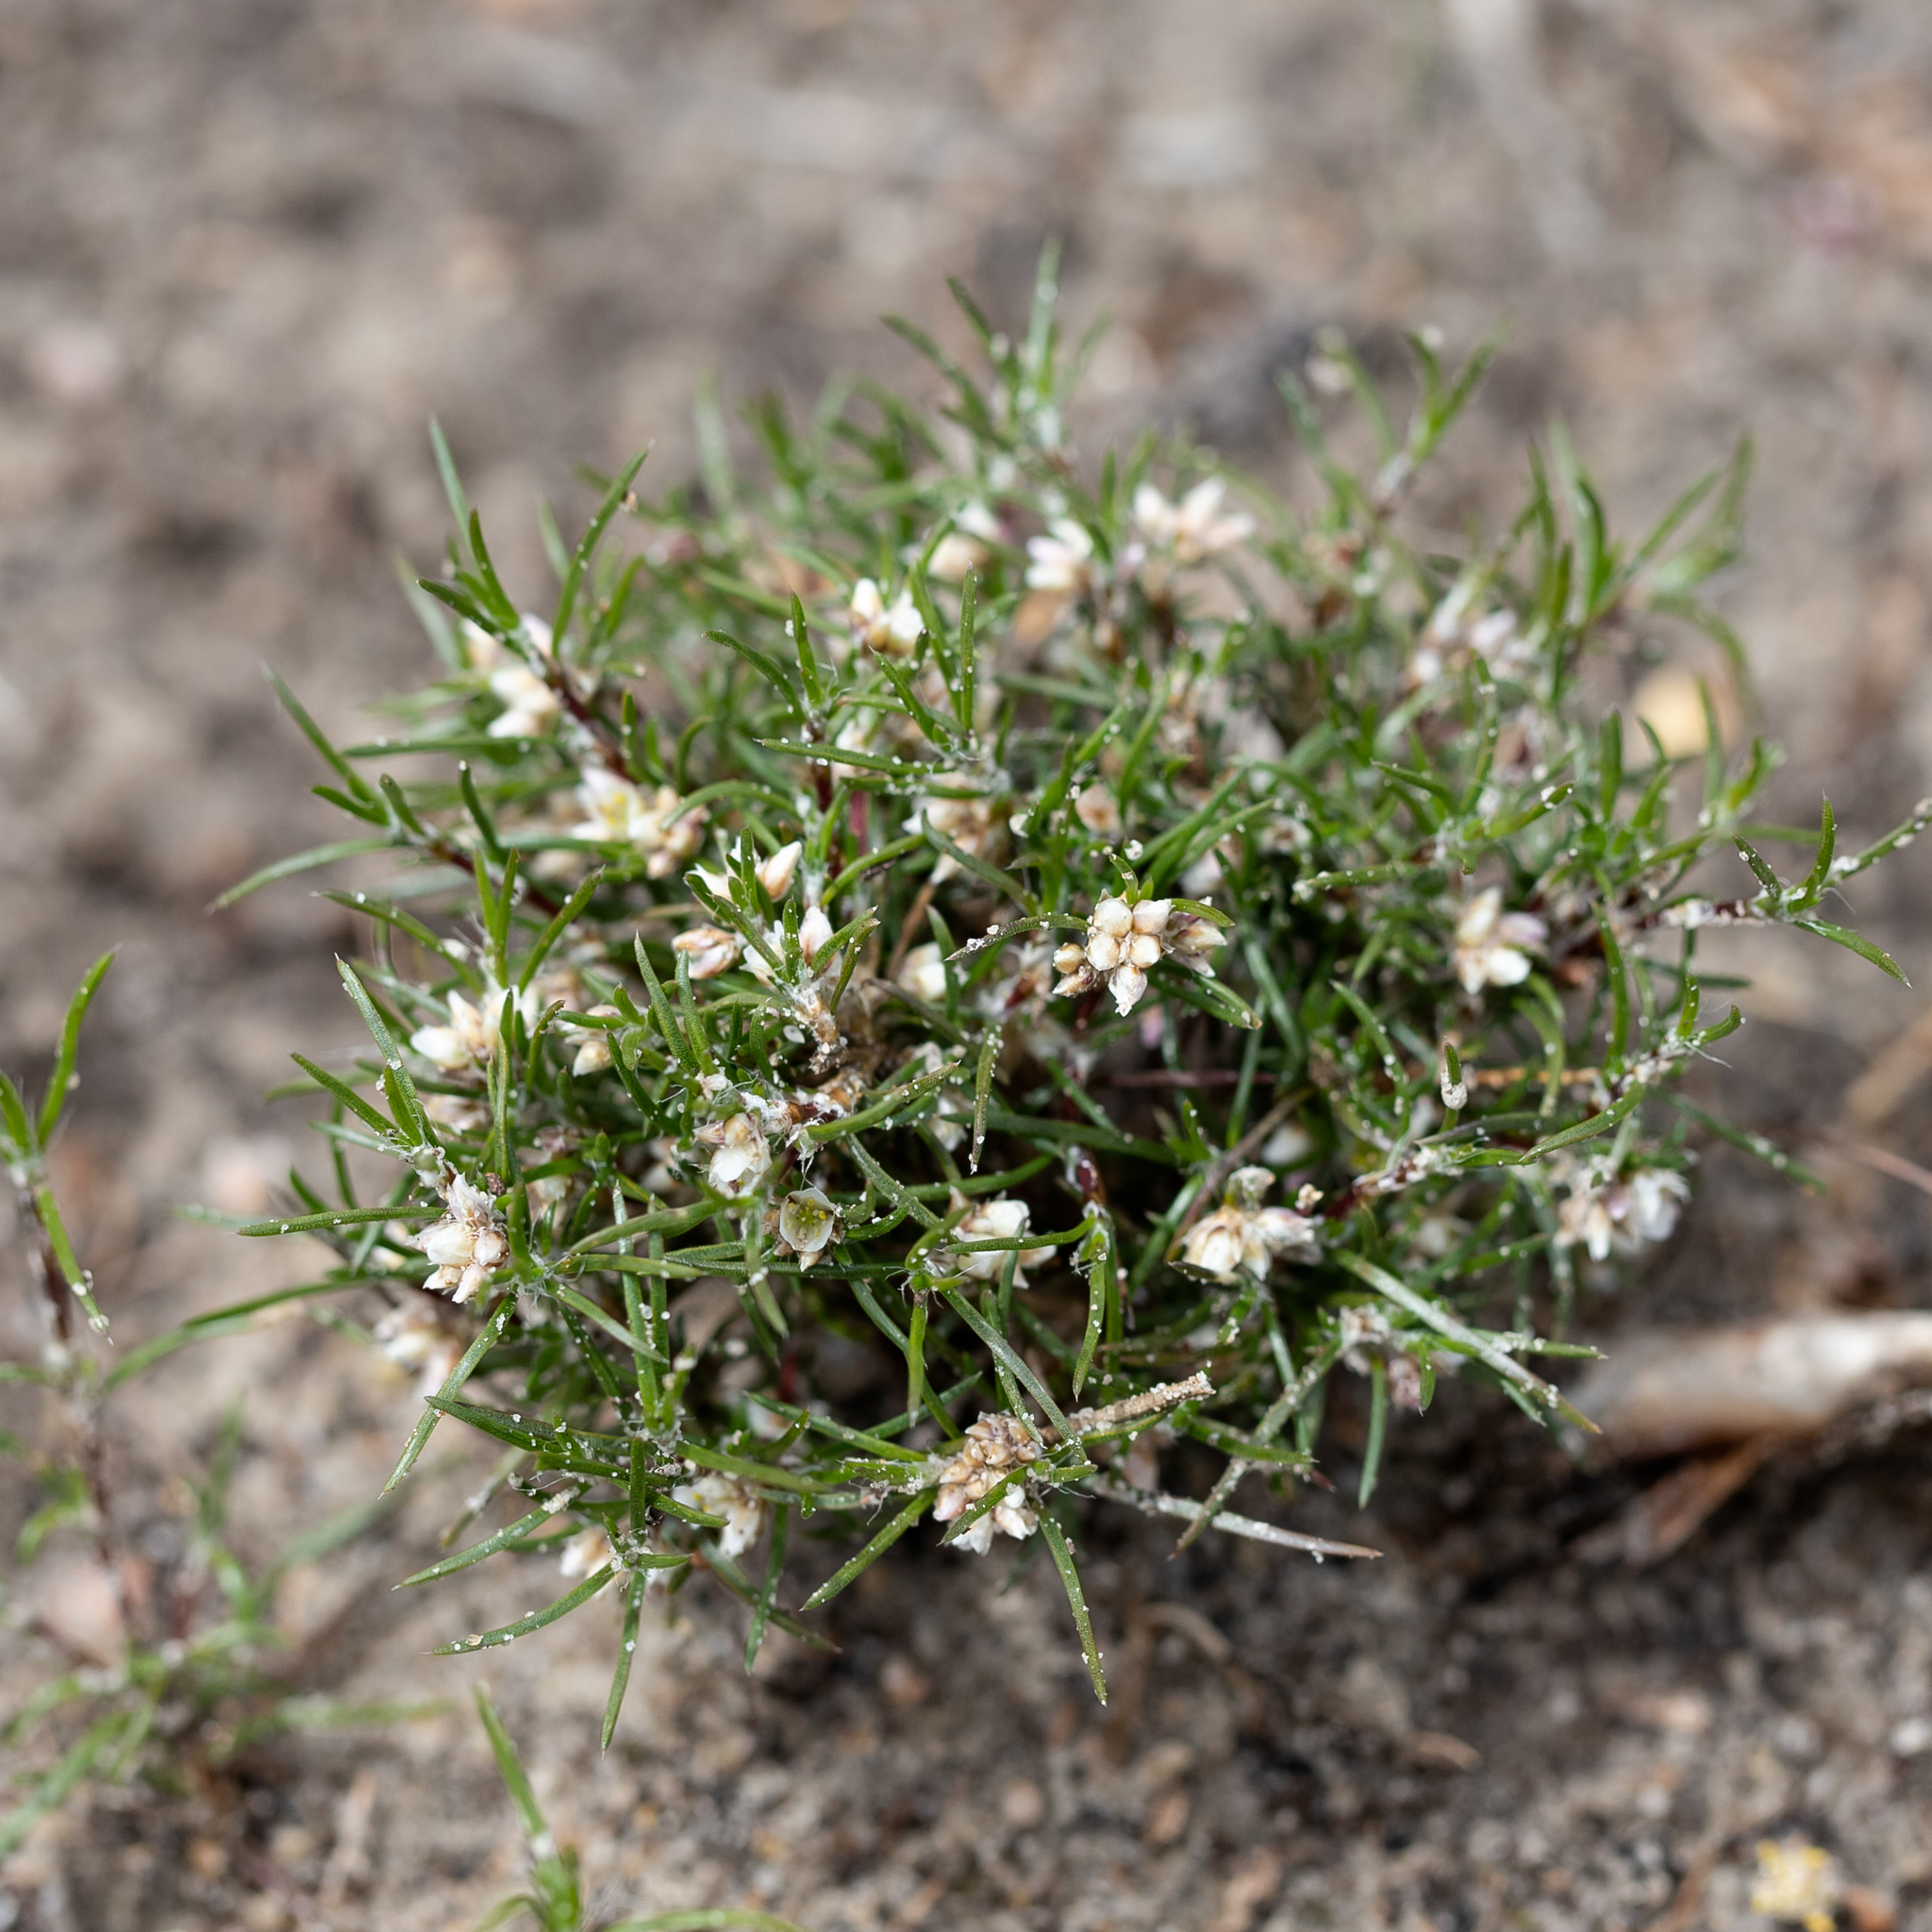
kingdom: Plantae
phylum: Tracheophyta
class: Liliopsida
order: Asparagales
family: Asparagaceae
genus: Laxmannia
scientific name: Laxmannia orientalis
